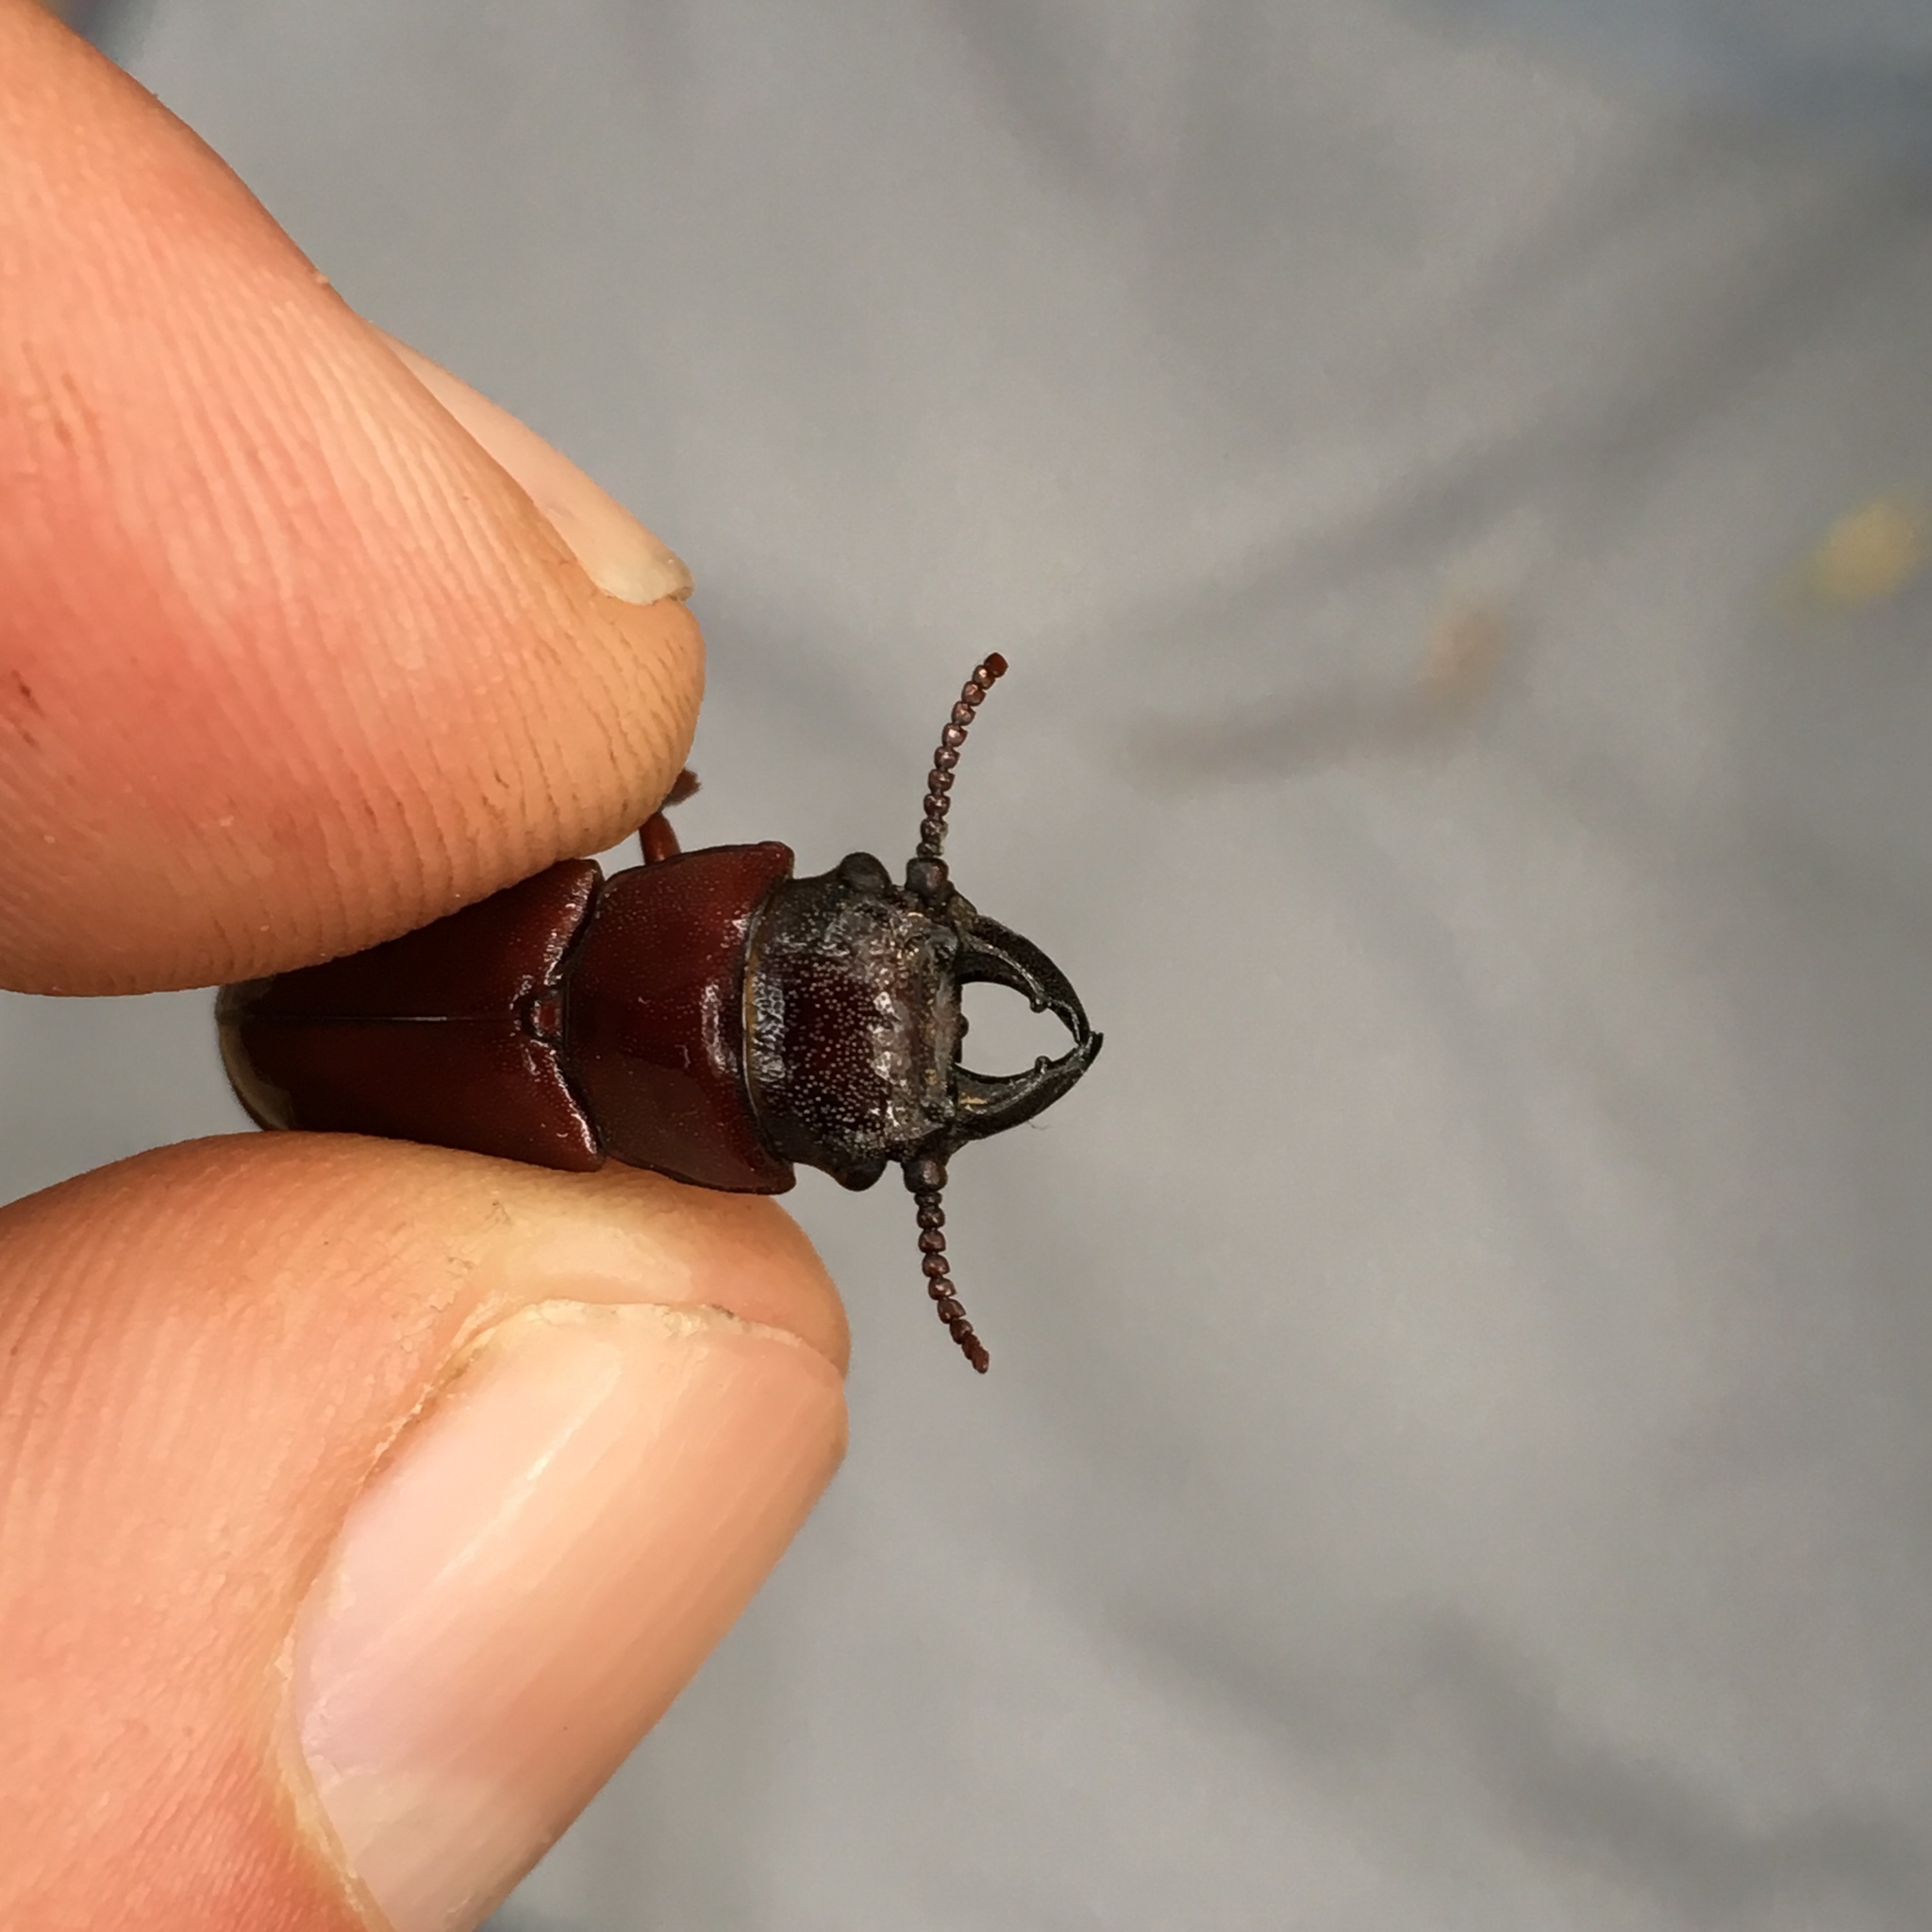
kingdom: Animalia
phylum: Arthropoda
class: Insecta
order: Coleoptera
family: Cerambycidae
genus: Neandra
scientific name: Neandra brunnea
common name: Pole borer
